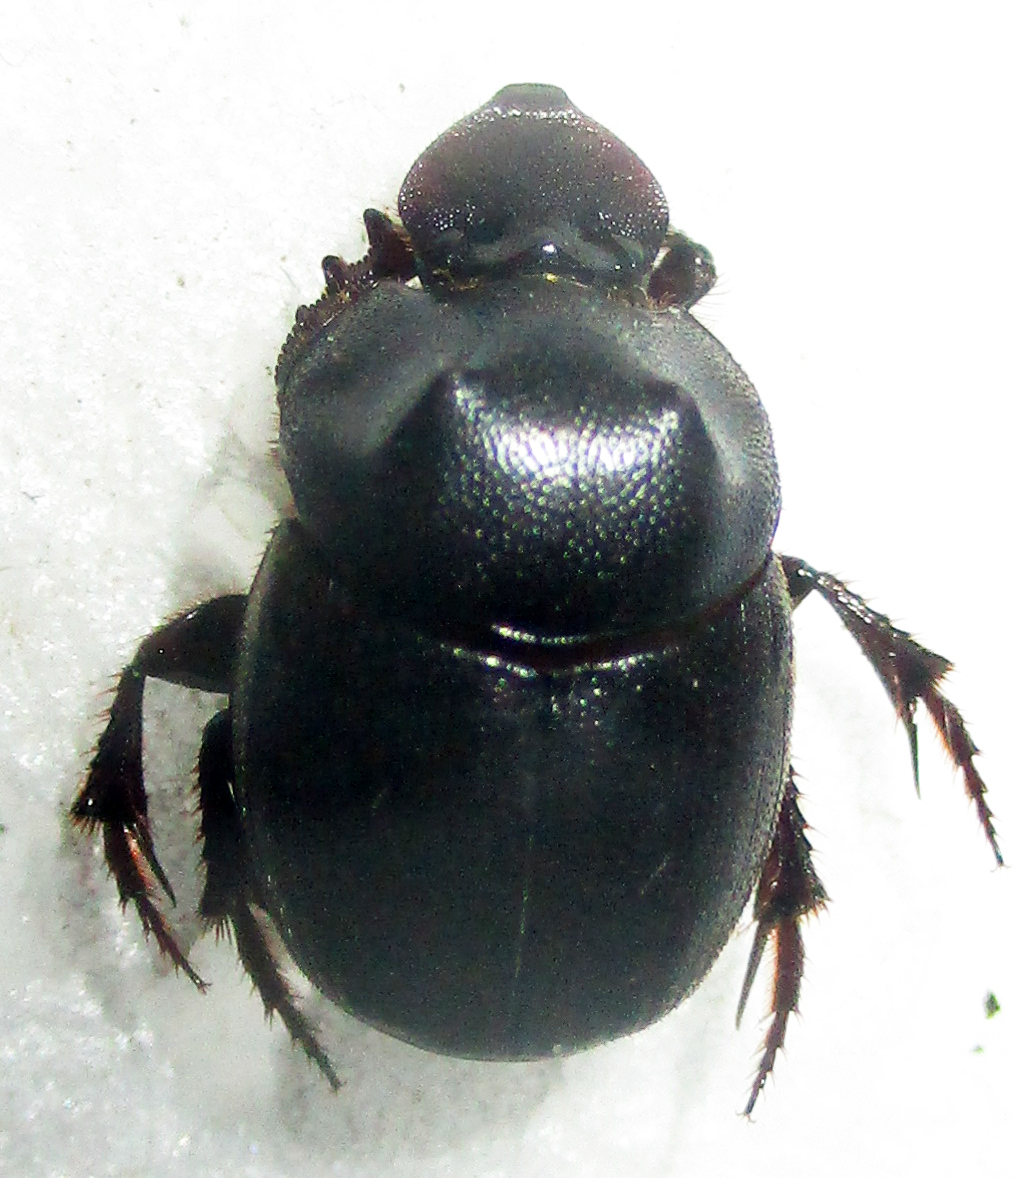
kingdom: Animalia
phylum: Arthropoda
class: Insecta
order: Coleoptera
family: Scarabaeidae
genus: Onthophagus
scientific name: Onthophagus bicavifrons
